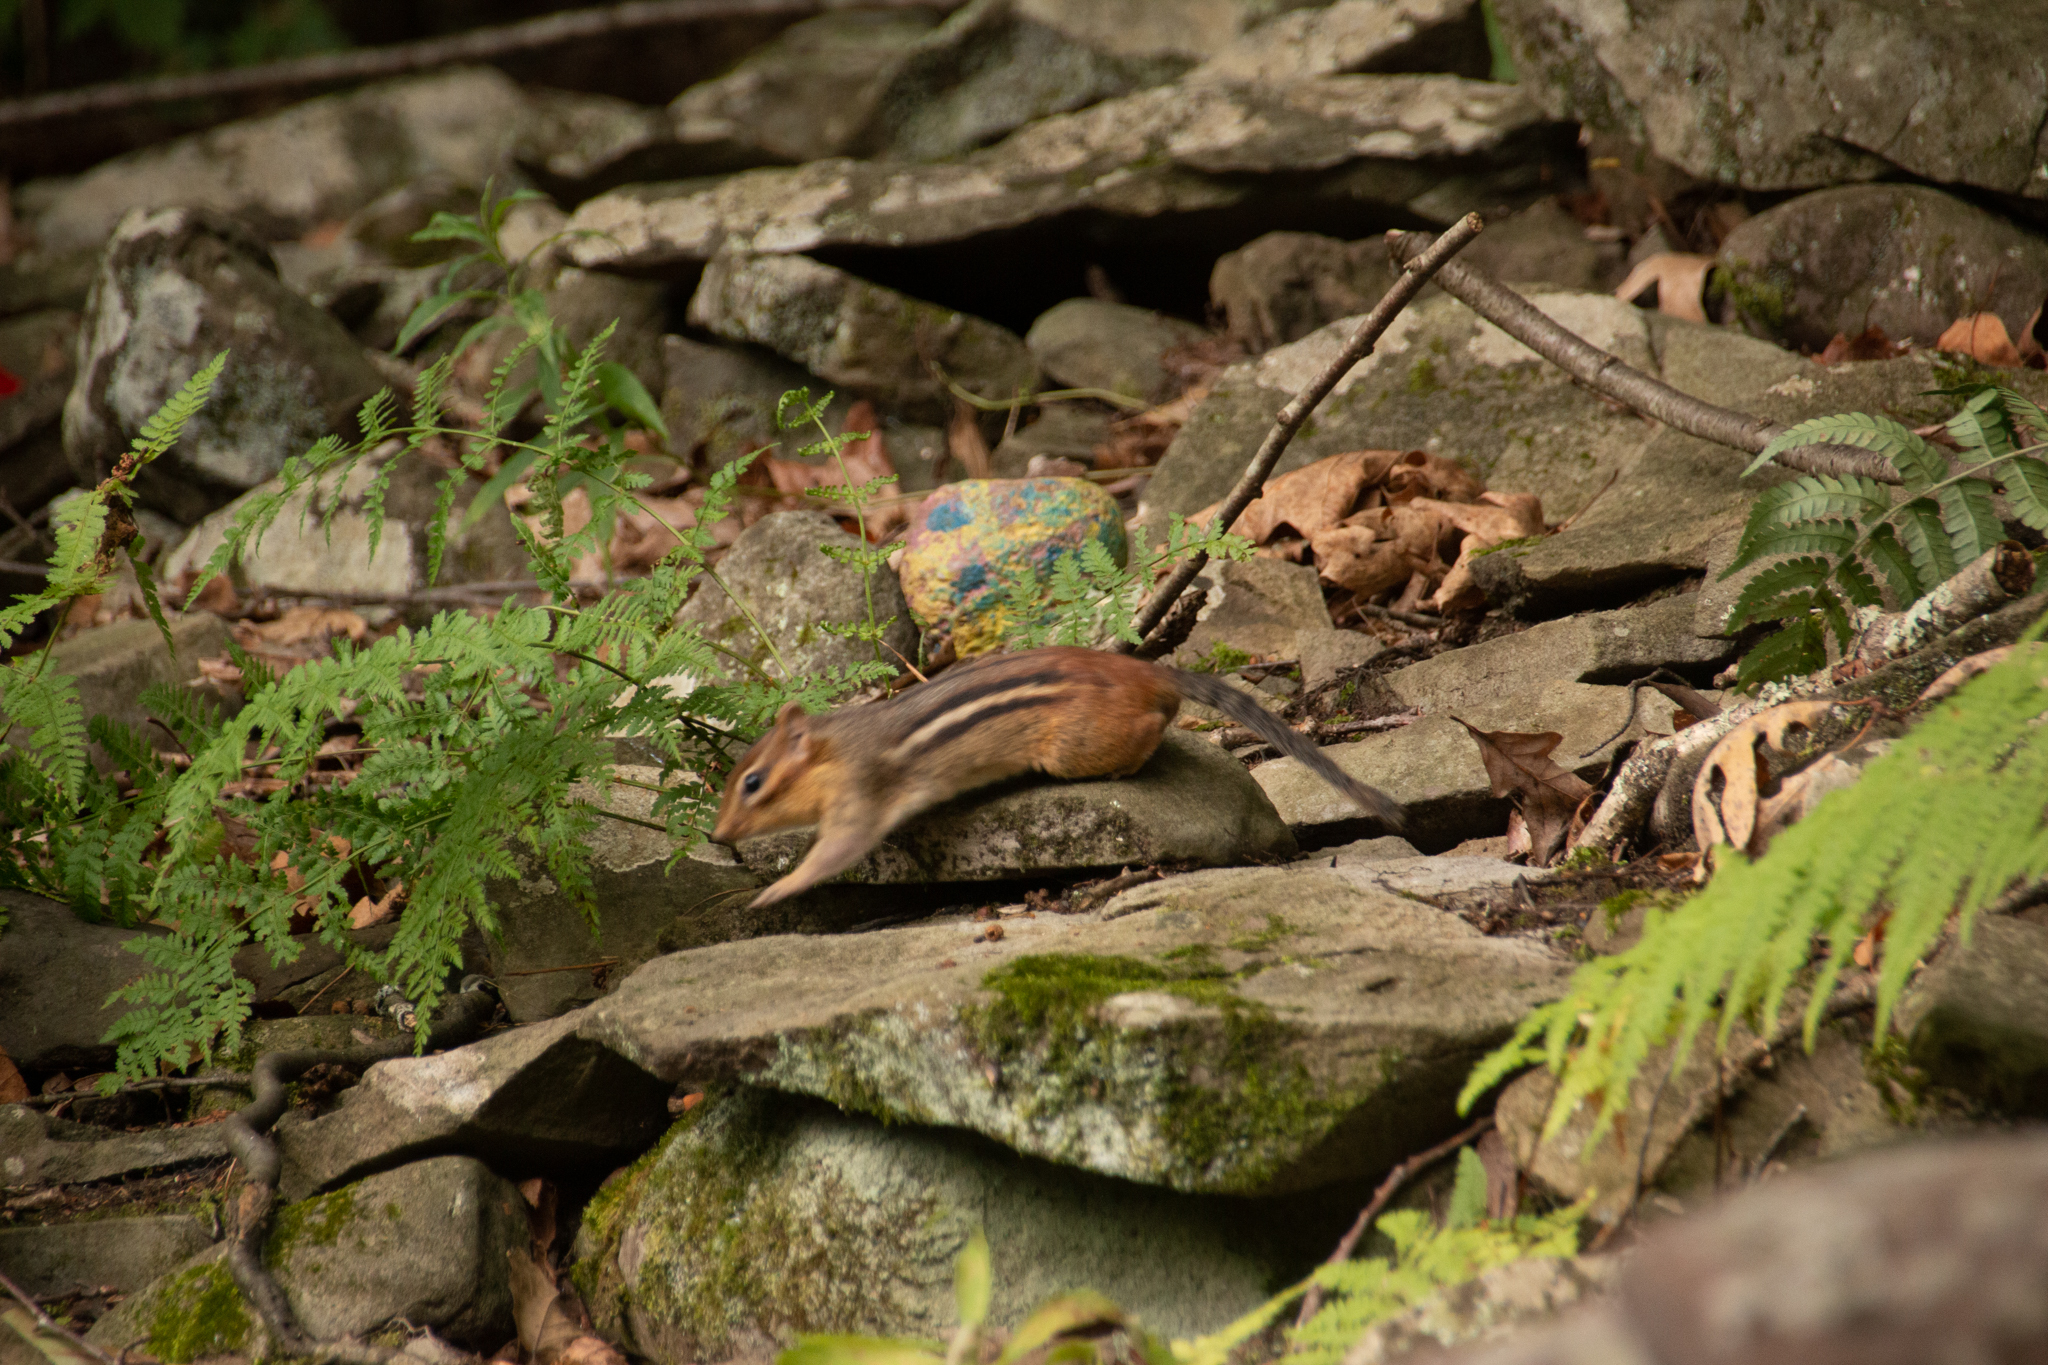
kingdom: Animalia
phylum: Chordata
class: Mammalia
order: Rodentia
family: Sciuridae
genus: Tamias
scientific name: Tamias striatus
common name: Eastern chipmunk
